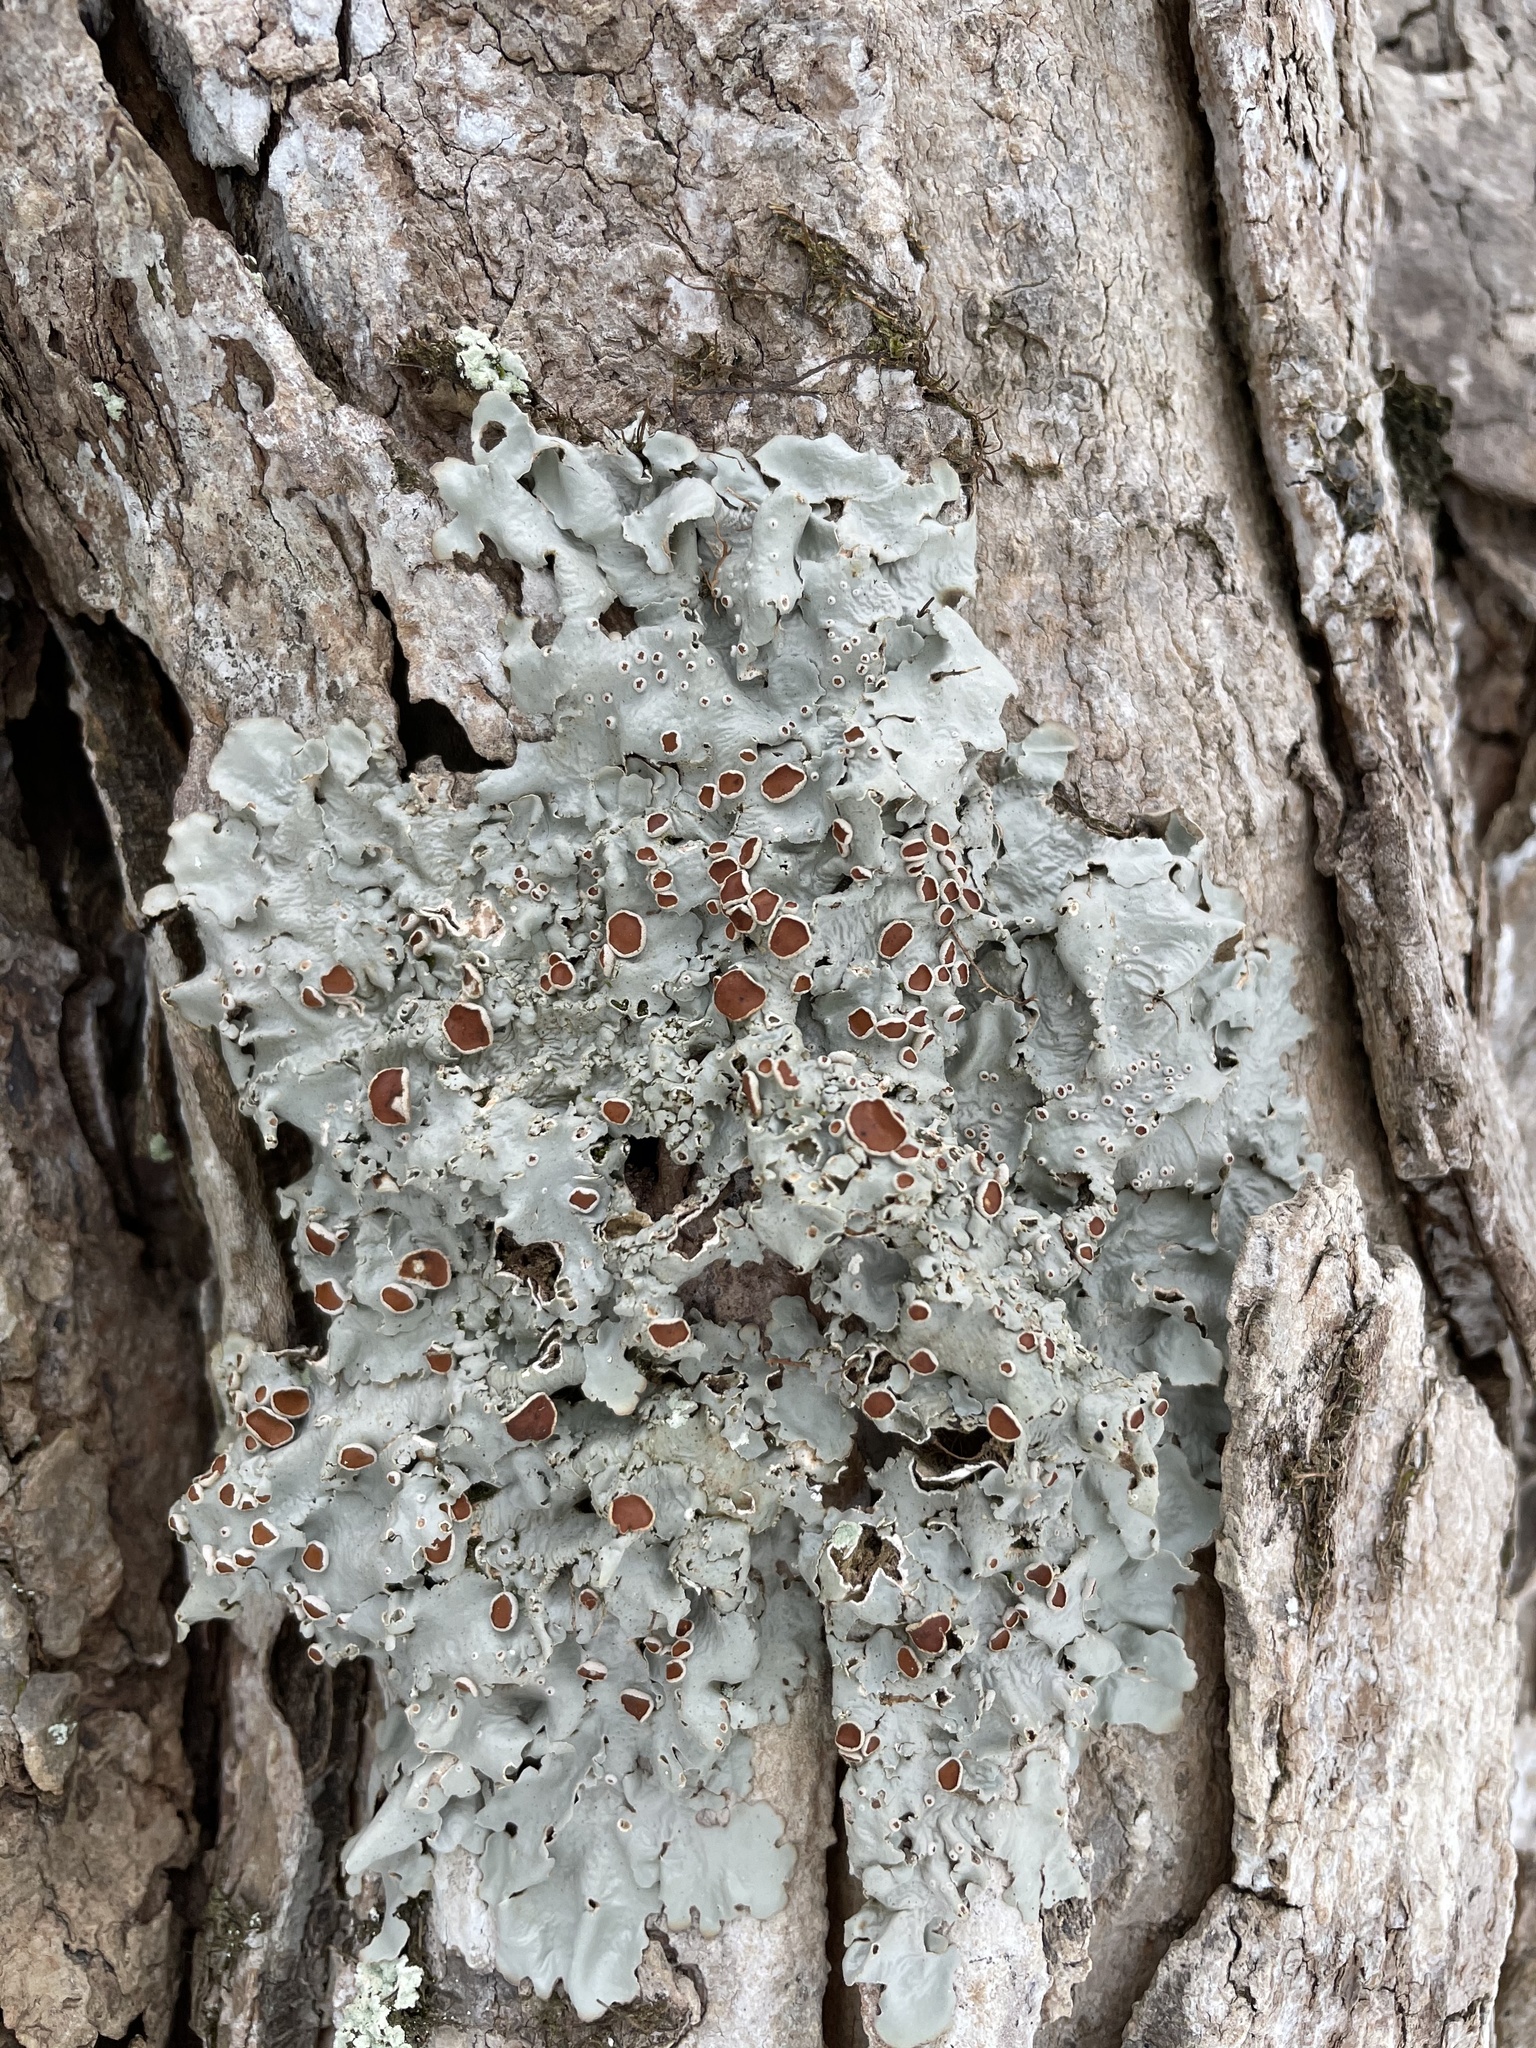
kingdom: Fungi
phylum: Ascomycota
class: Lecanoromycetes
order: Peltigerales
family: Lobariaceae
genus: Ricasolia
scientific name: Ricasolia quercizans
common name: Smooth lungwort
